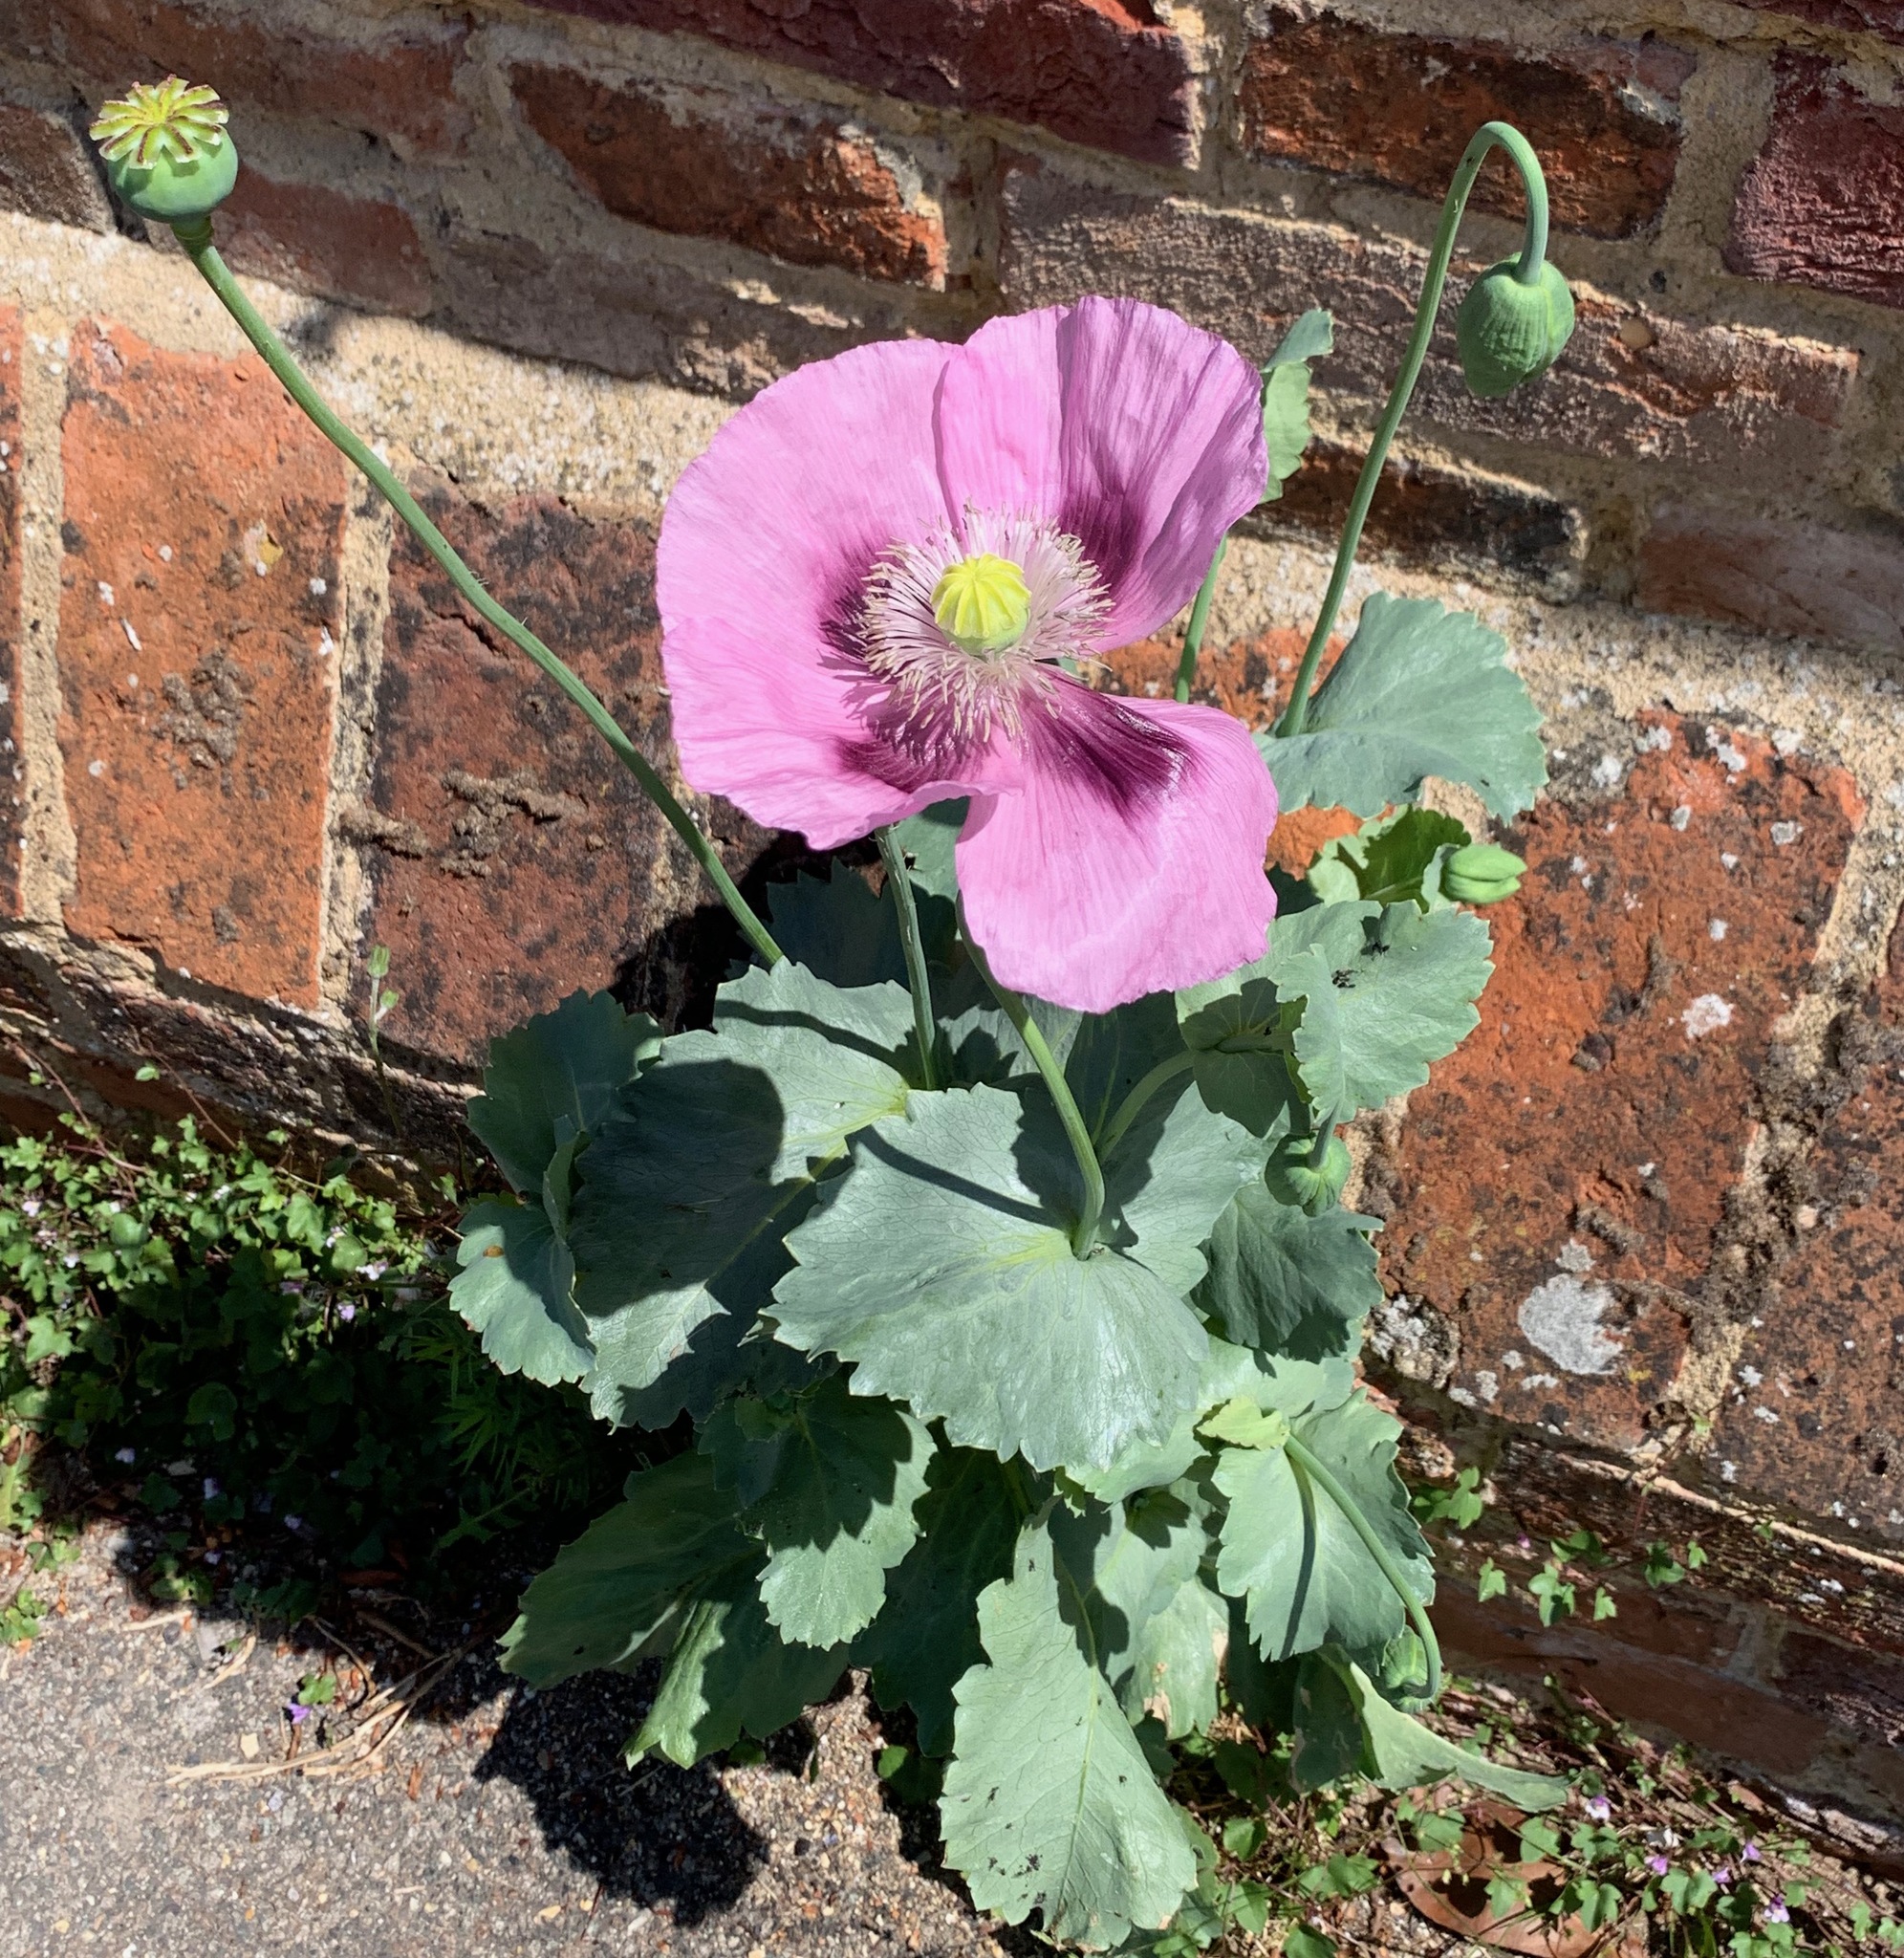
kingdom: Plantae
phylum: Tracheophyta
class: Magnoliopsida
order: Ranunculales
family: Papaveraceae
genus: Papaver
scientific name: Papaver somniferum
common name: Opium poppy
